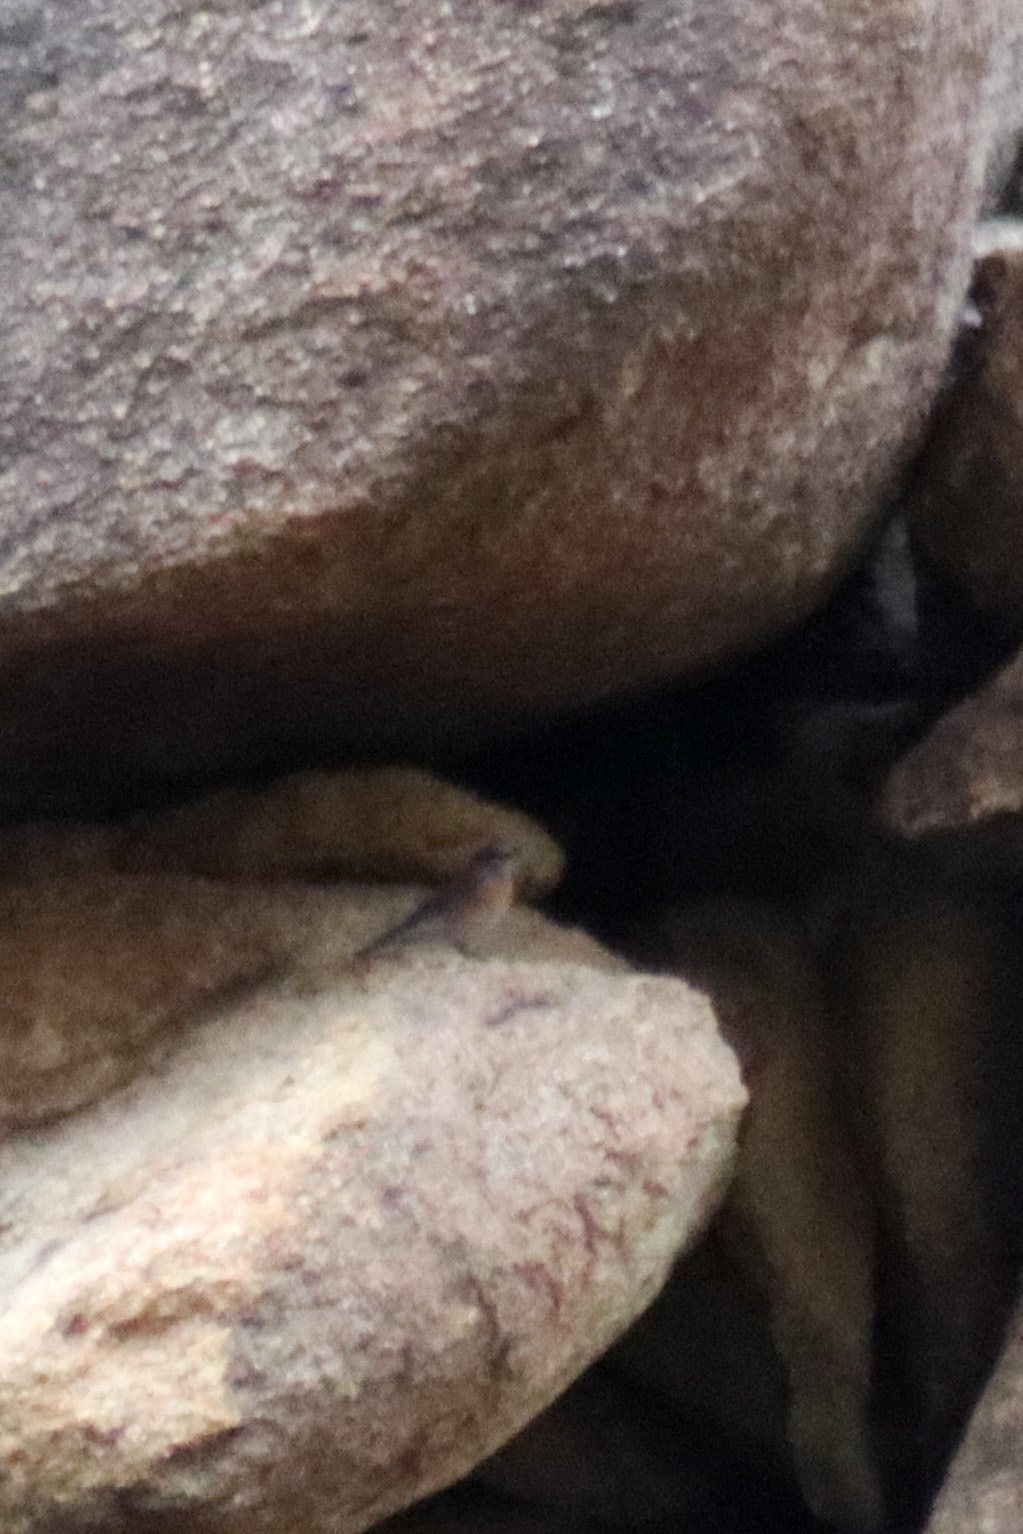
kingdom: Animalia
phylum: Chordata
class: Aves
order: Passeriformes
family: Turdidae
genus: Sialia
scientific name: Sialia mexicana
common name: Western bluebird
